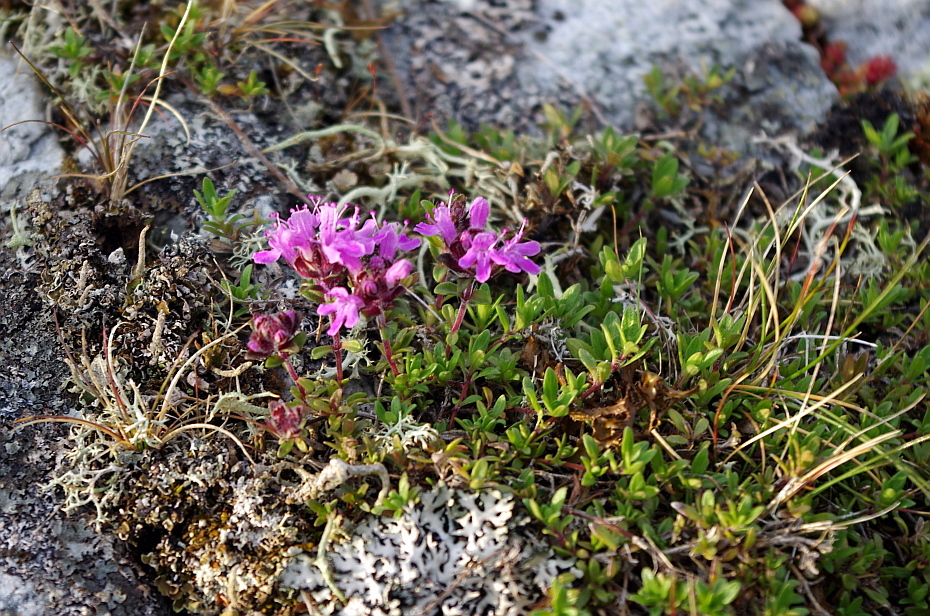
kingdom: Plantae
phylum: Tracheophyta
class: Magnoliopsida
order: Lamiales
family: Lamiaceae
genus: Thymus
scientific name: Thymus serpyllum
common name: Breckland thyme
